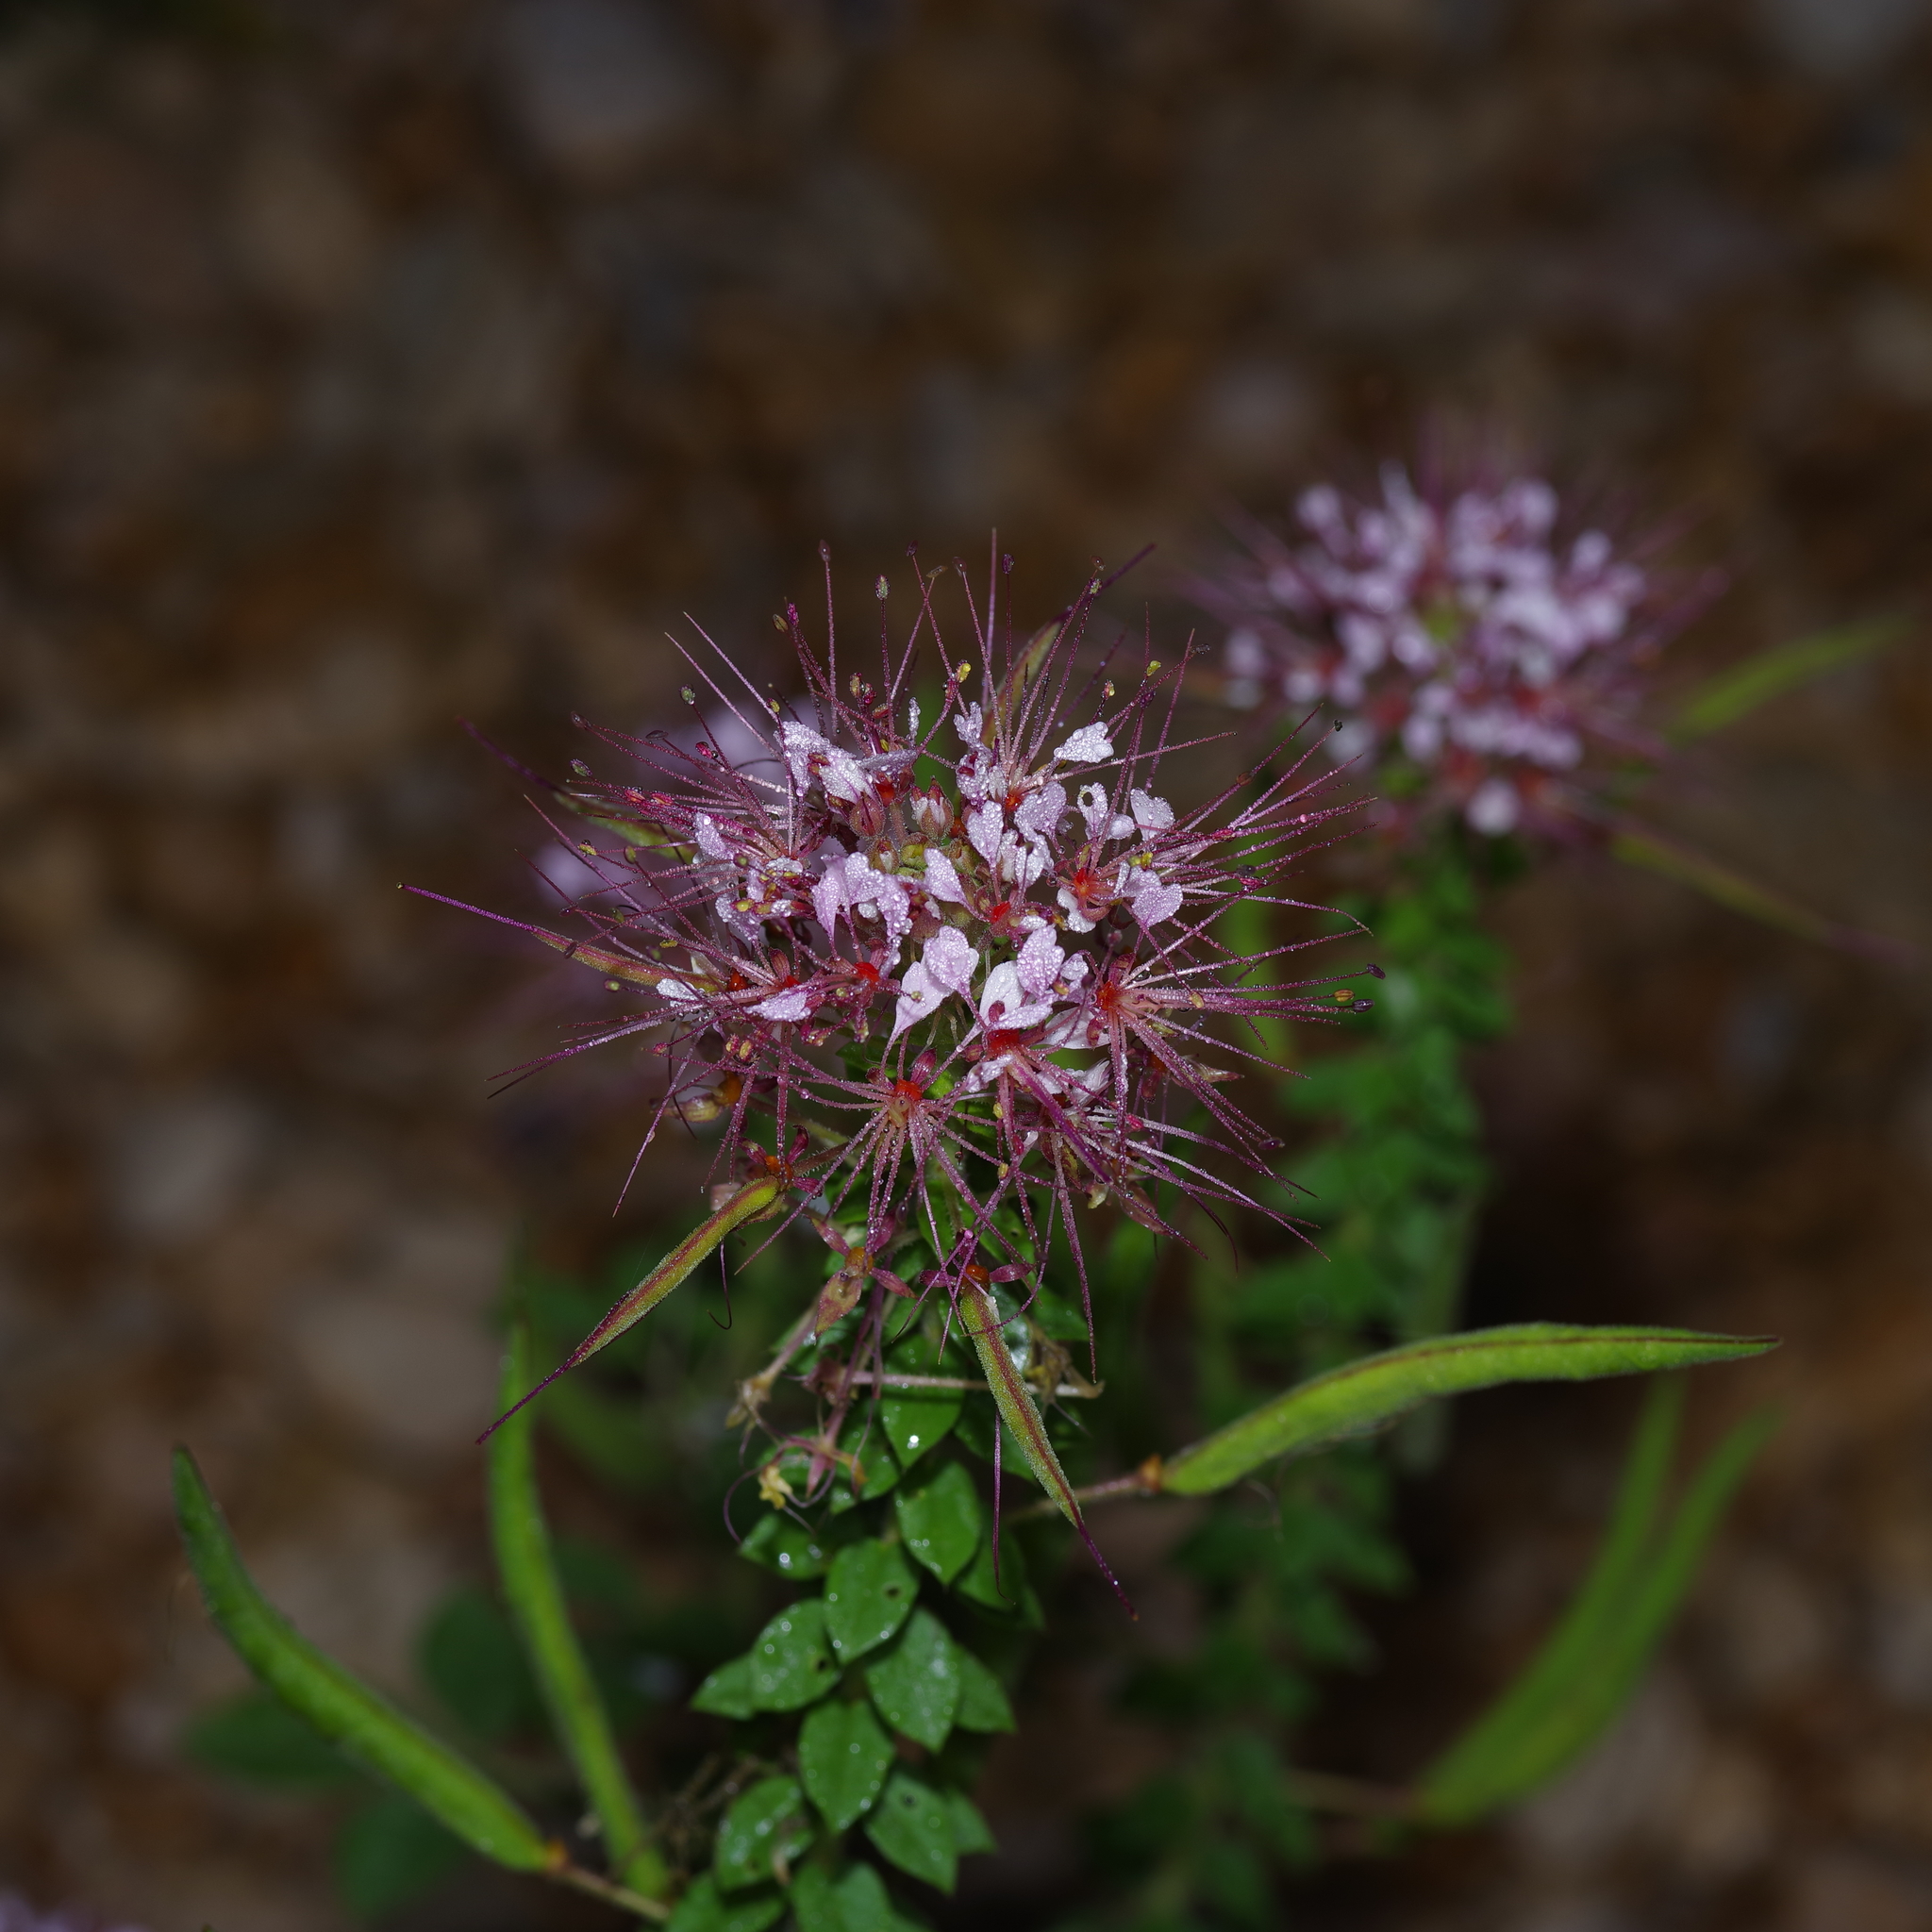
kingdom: Plantae
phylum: Tracheophyta
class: Magnoliopsida
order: Brassicales
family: Cleomaceae
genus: Polanisia
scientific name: Polanisia dodecandra
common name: Clammyweed
